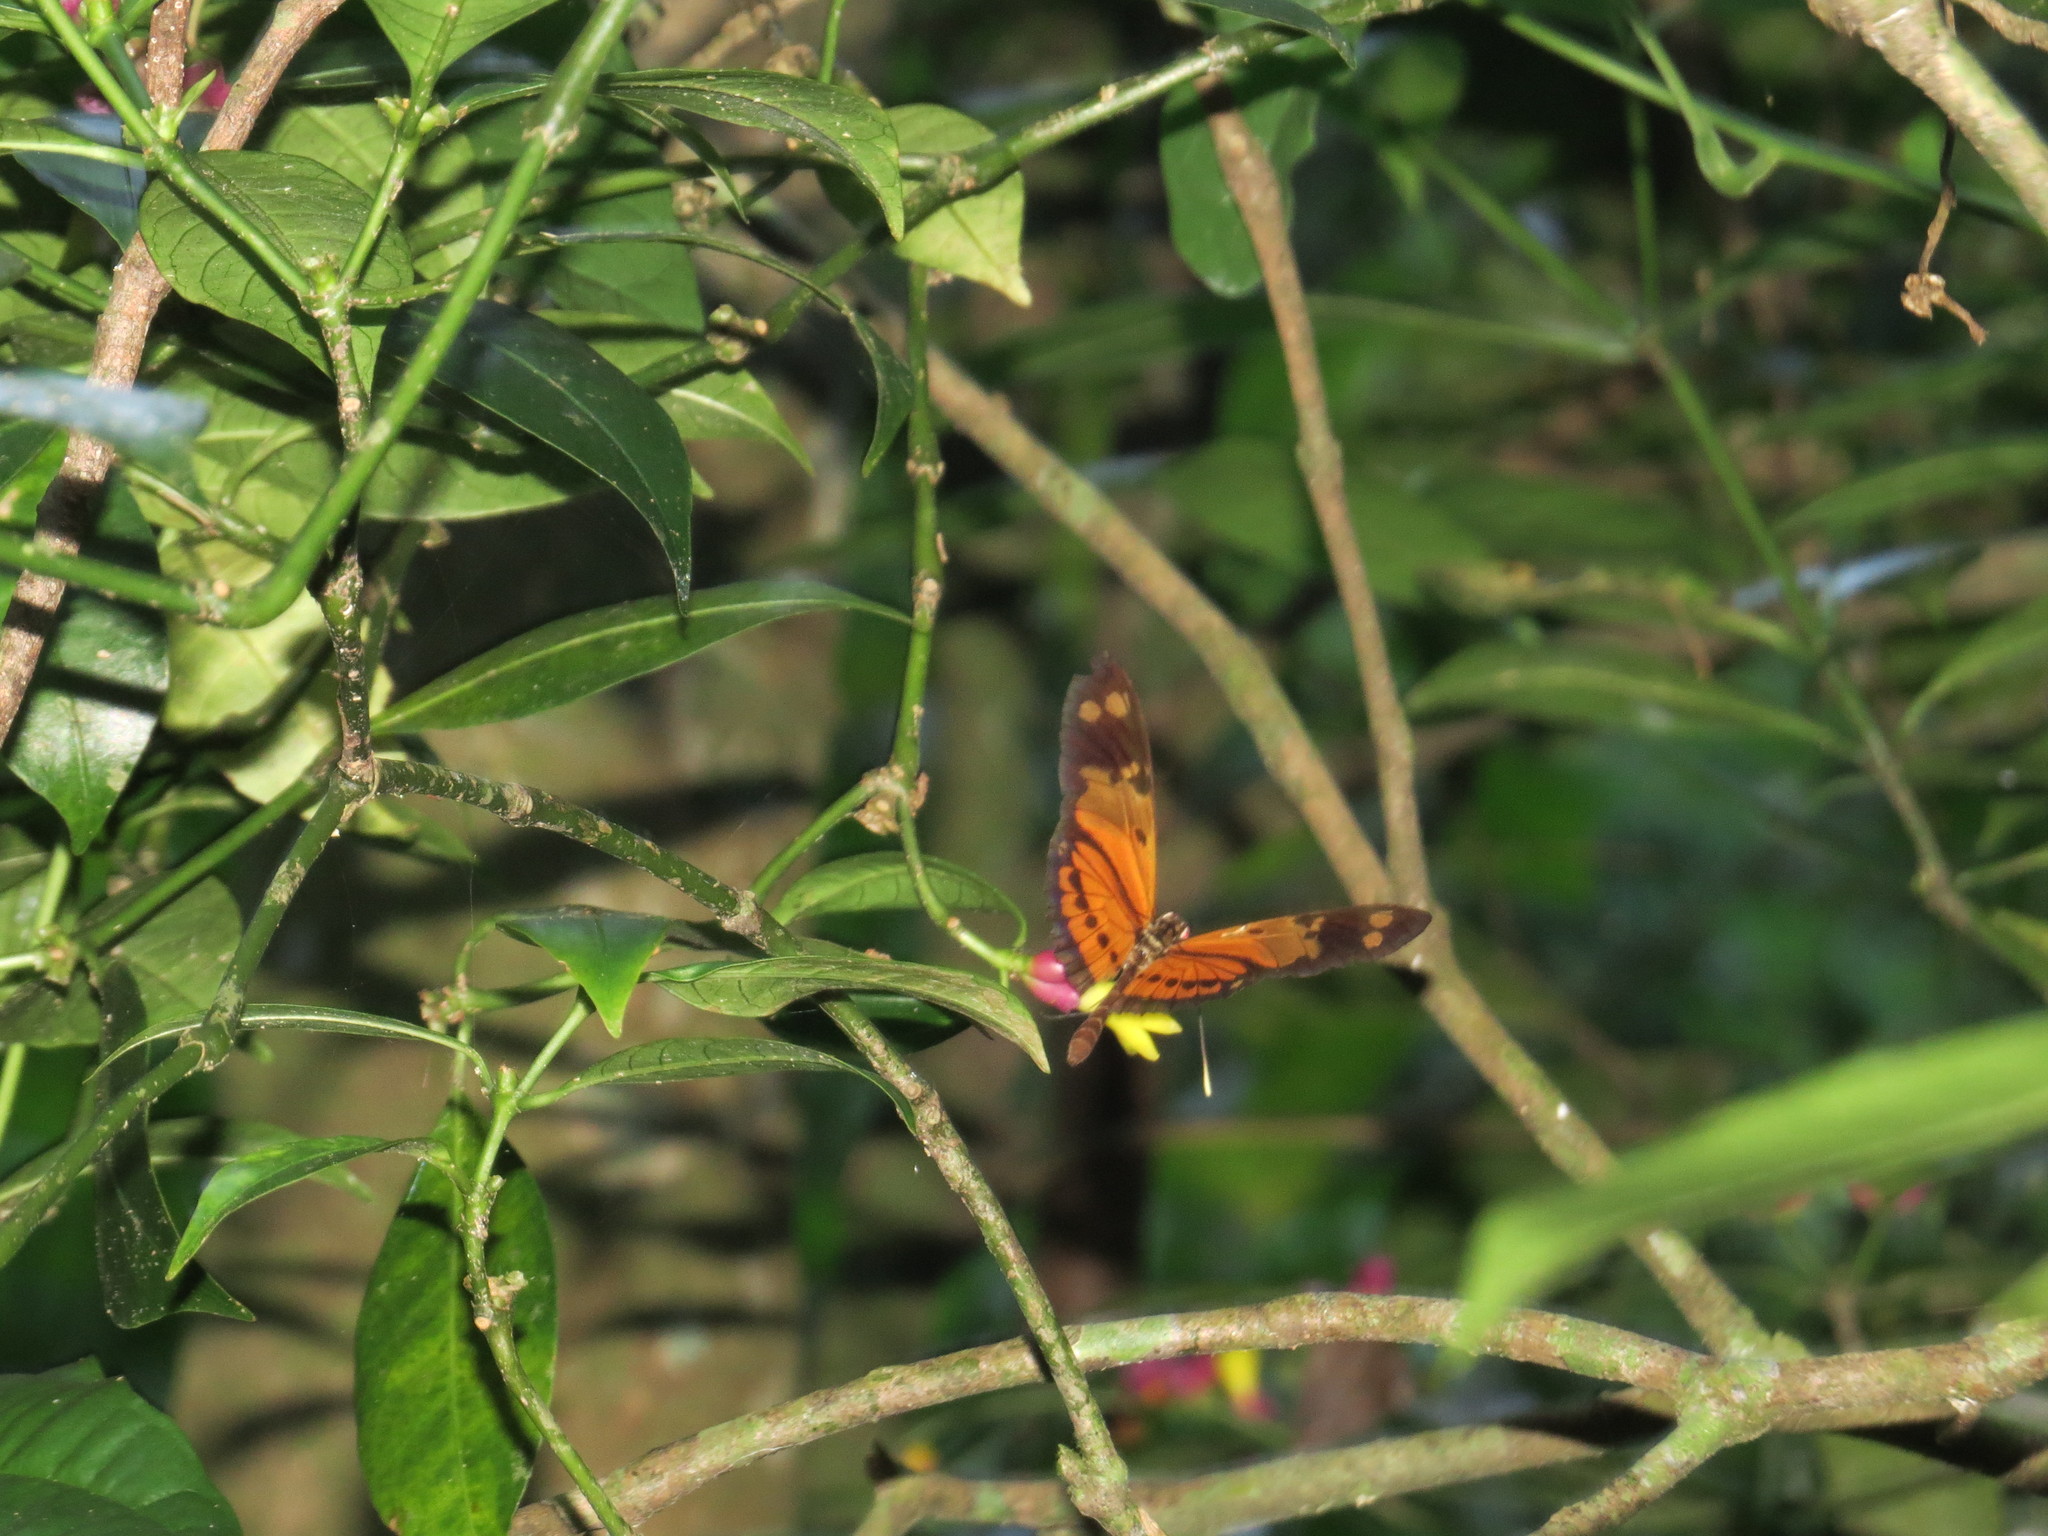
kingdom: Animalia
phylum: Arthropoda
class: Insecta
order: Lepidoptera
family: Nymphalidae
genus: Heliconius
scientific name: Heliconius numatus
